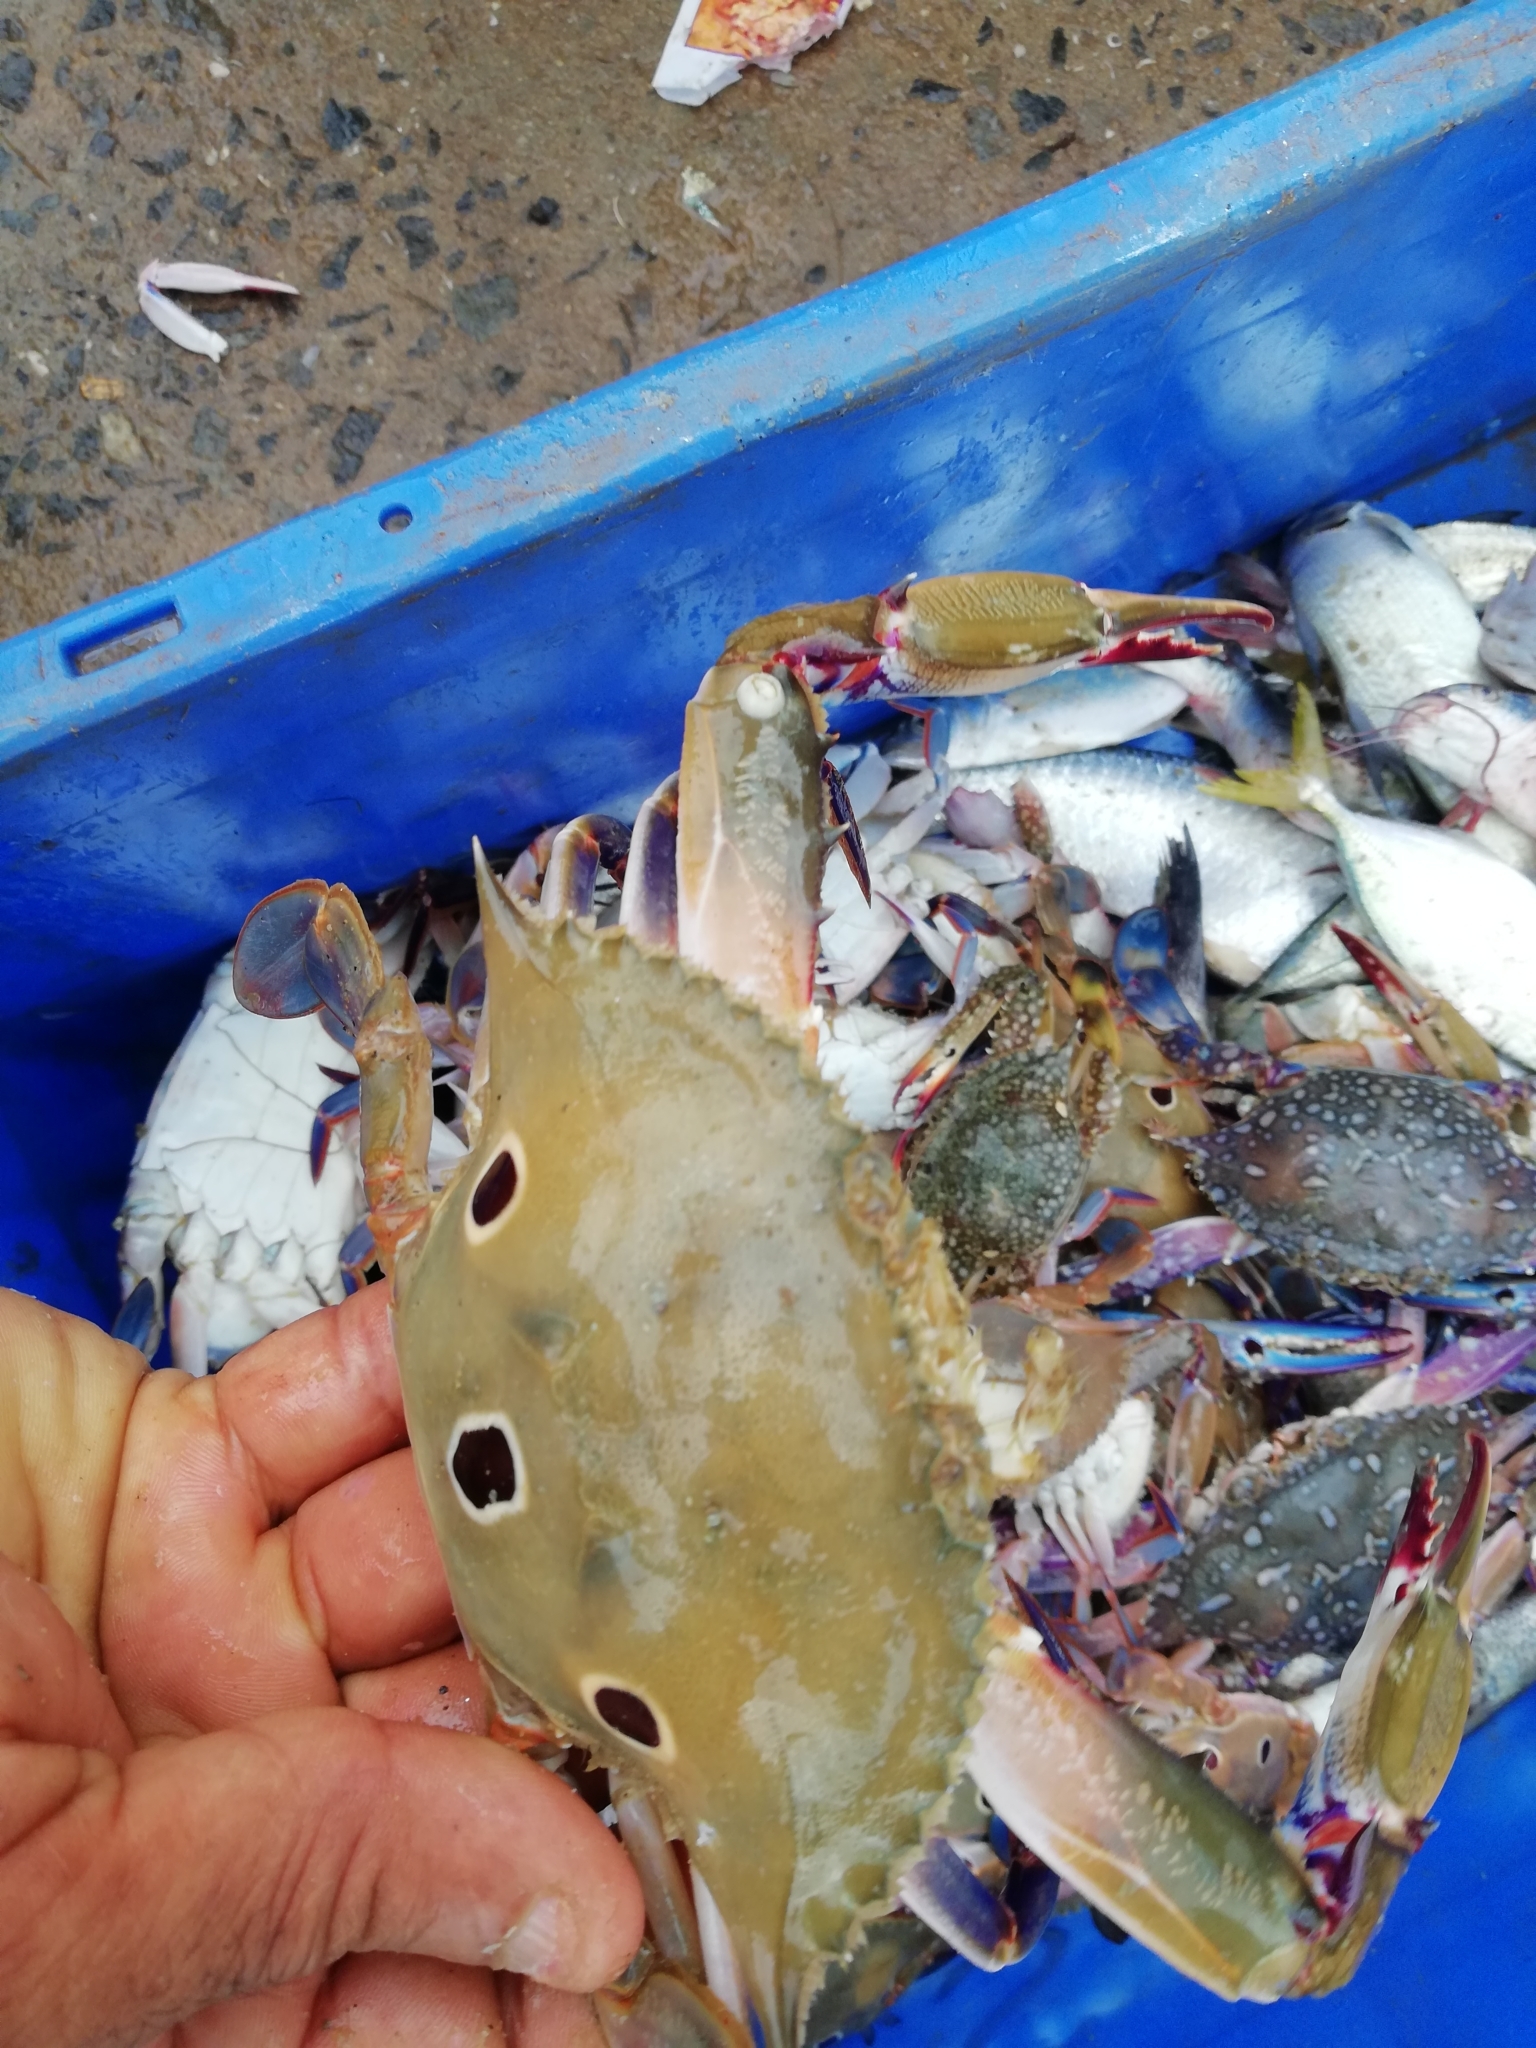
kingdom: Animalia
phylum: Arthropoda
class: Malacostraca
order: Decapoda
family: Portunidae
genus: Portunus
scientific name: Portunus sanguinolentus
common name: Blood-spotted swimming crab
